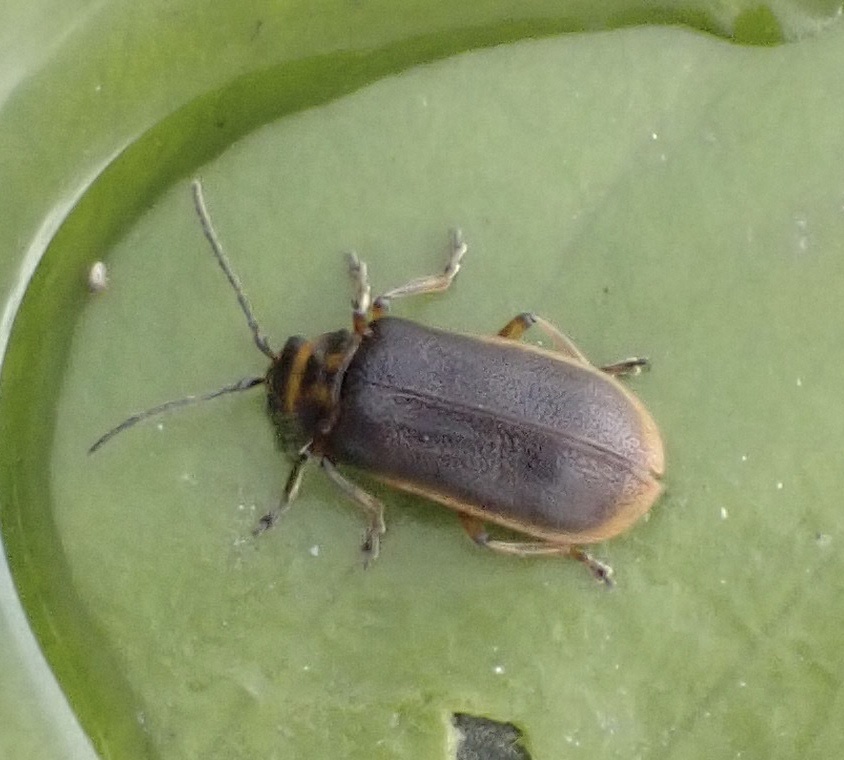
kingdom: Animalia
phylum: Arthropoda
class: Insecta
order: Coleoptera
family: Chrysomelidae
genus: Galerucella
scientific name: Galerucella nymphaeae
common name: Leaf beetle
